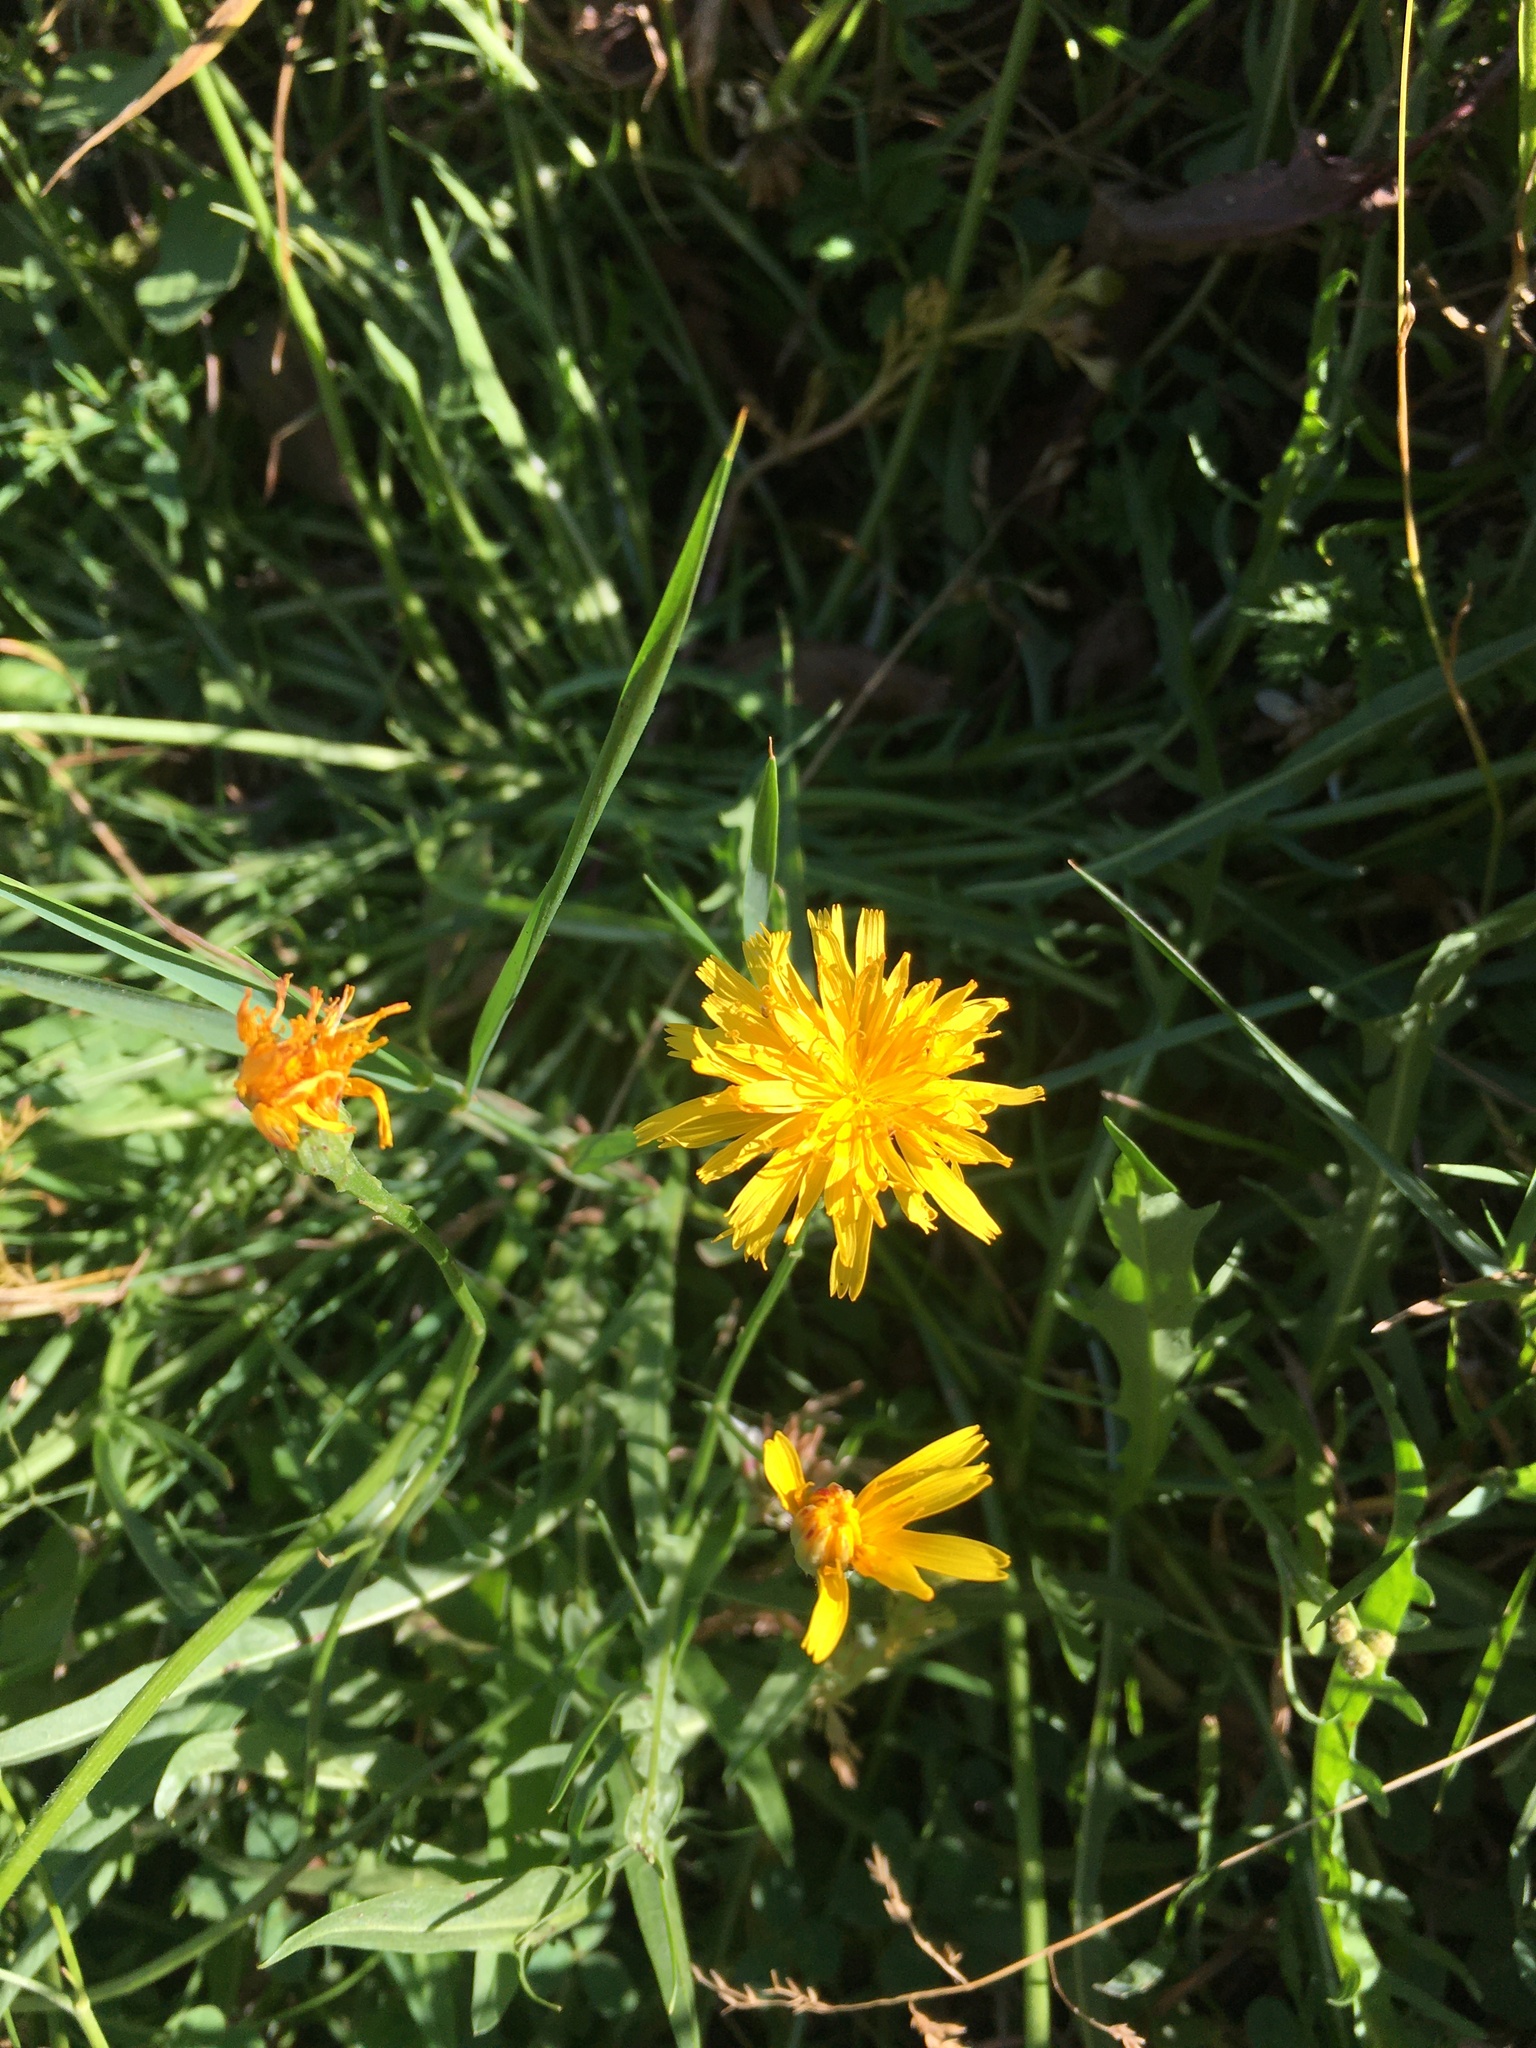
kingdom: Plantae
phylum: Tracheophyta
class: Magnoliopsida
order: Asterales
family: Asteraceae
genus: Scorzoneroides
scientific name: Scorzoneroides autumnalis
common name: Autumn hawkbit
